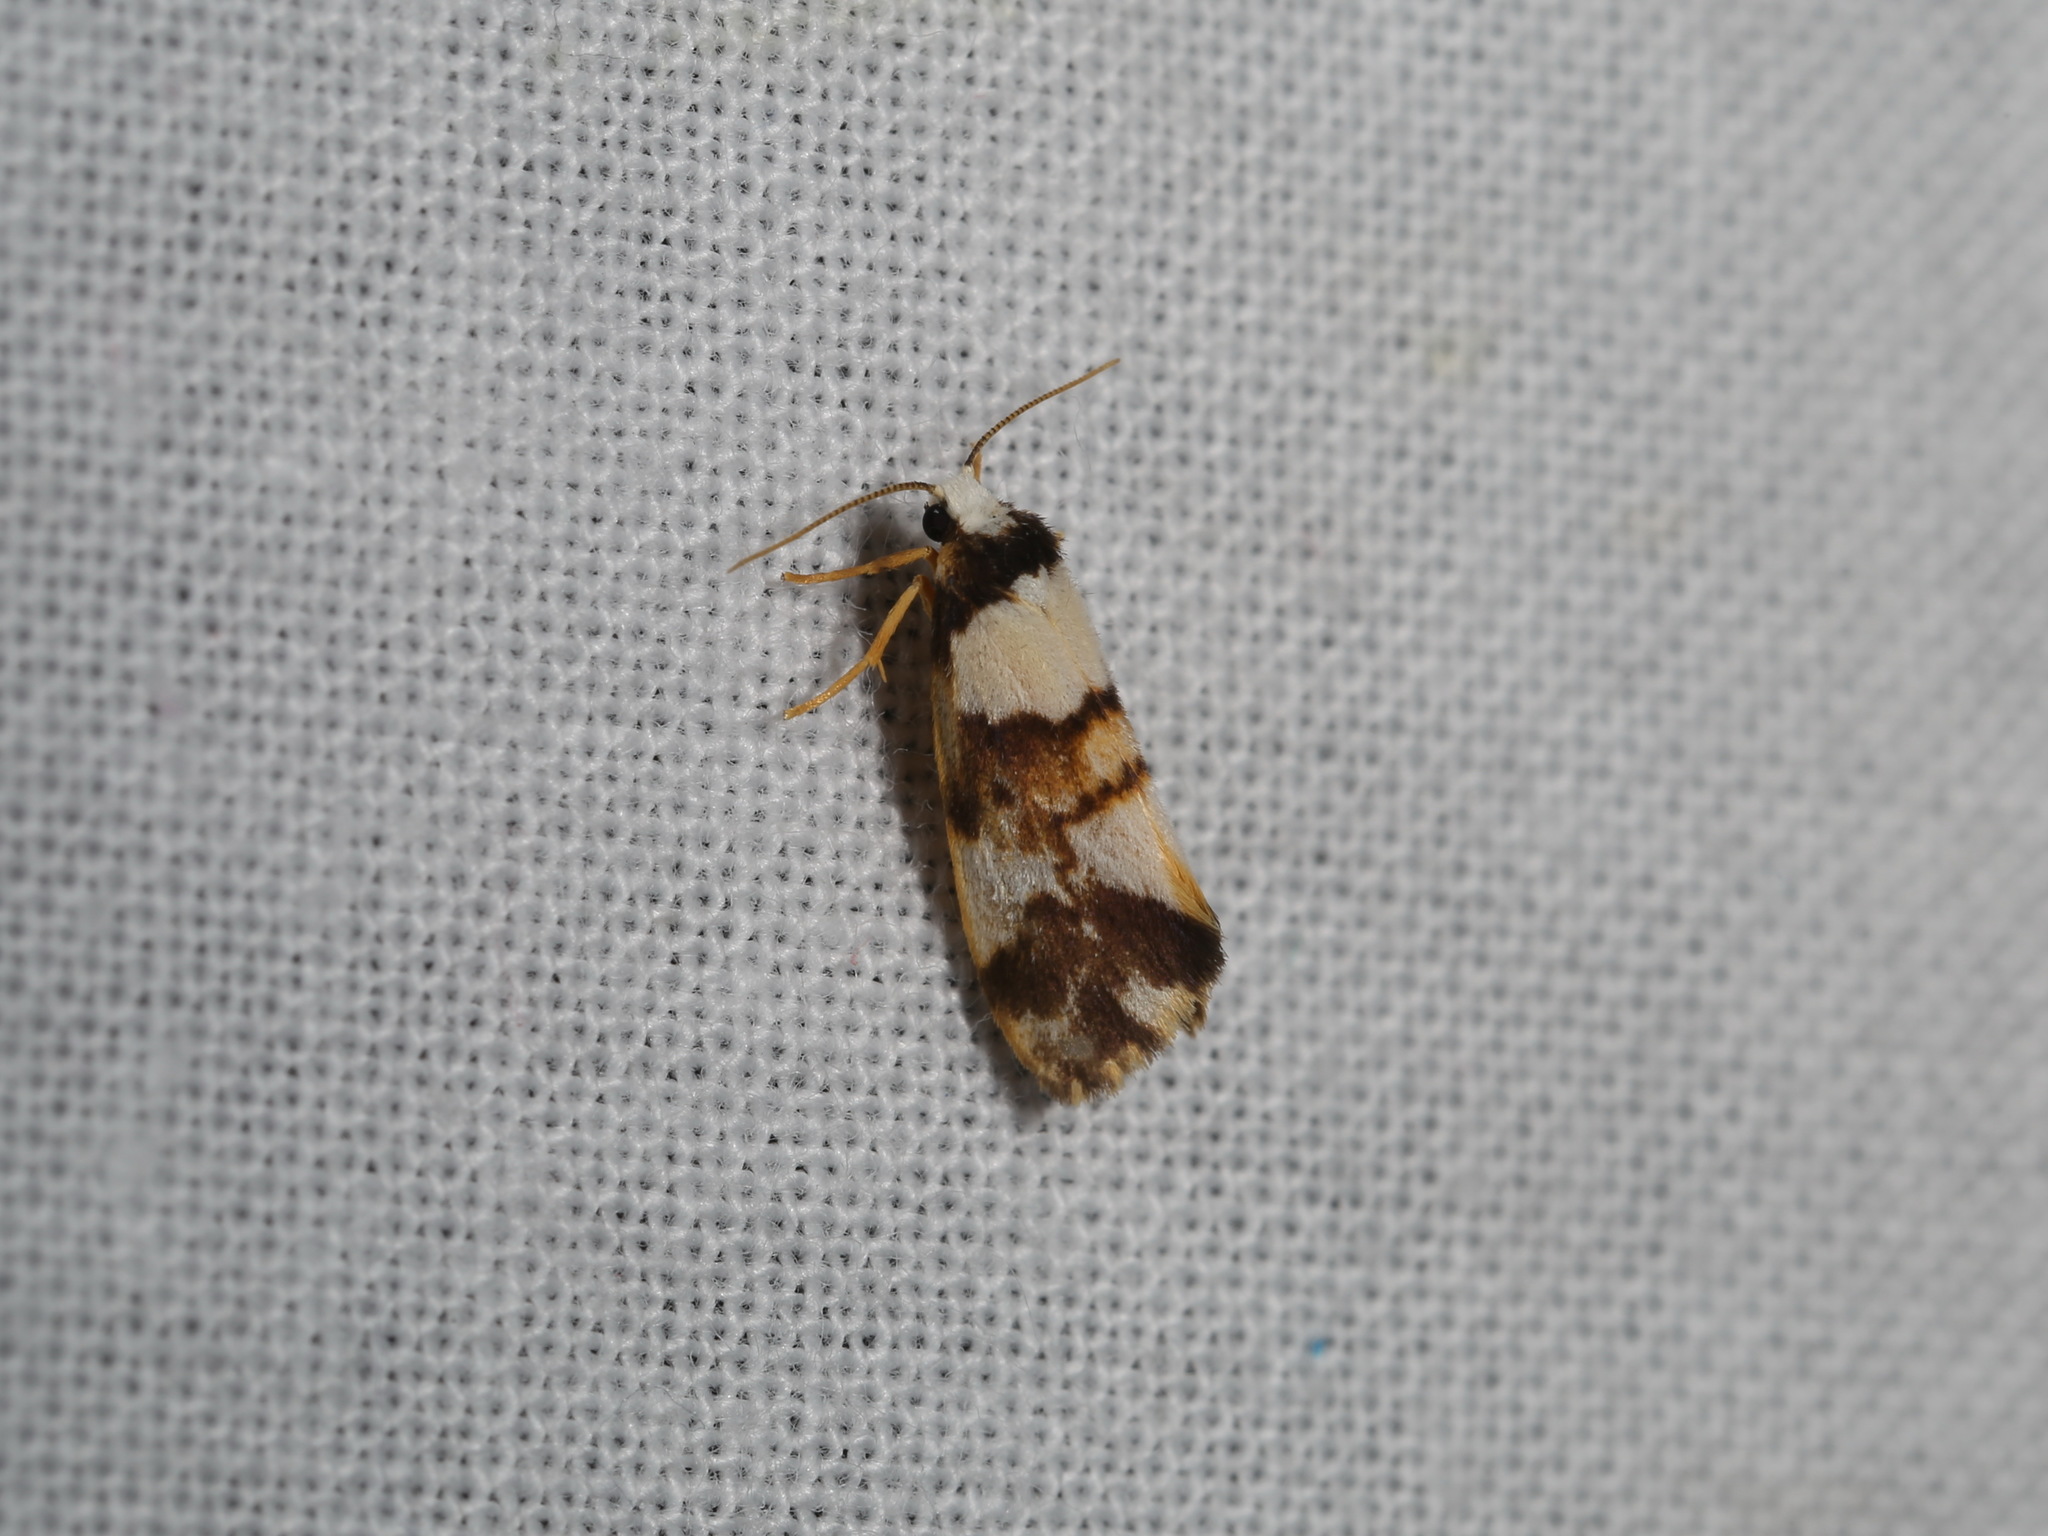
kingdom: Animalia
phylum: Arthropoda
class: Insecta
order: Lepidoptera
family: Erebidae
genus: Philenora
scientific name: Philenora aspectalella
